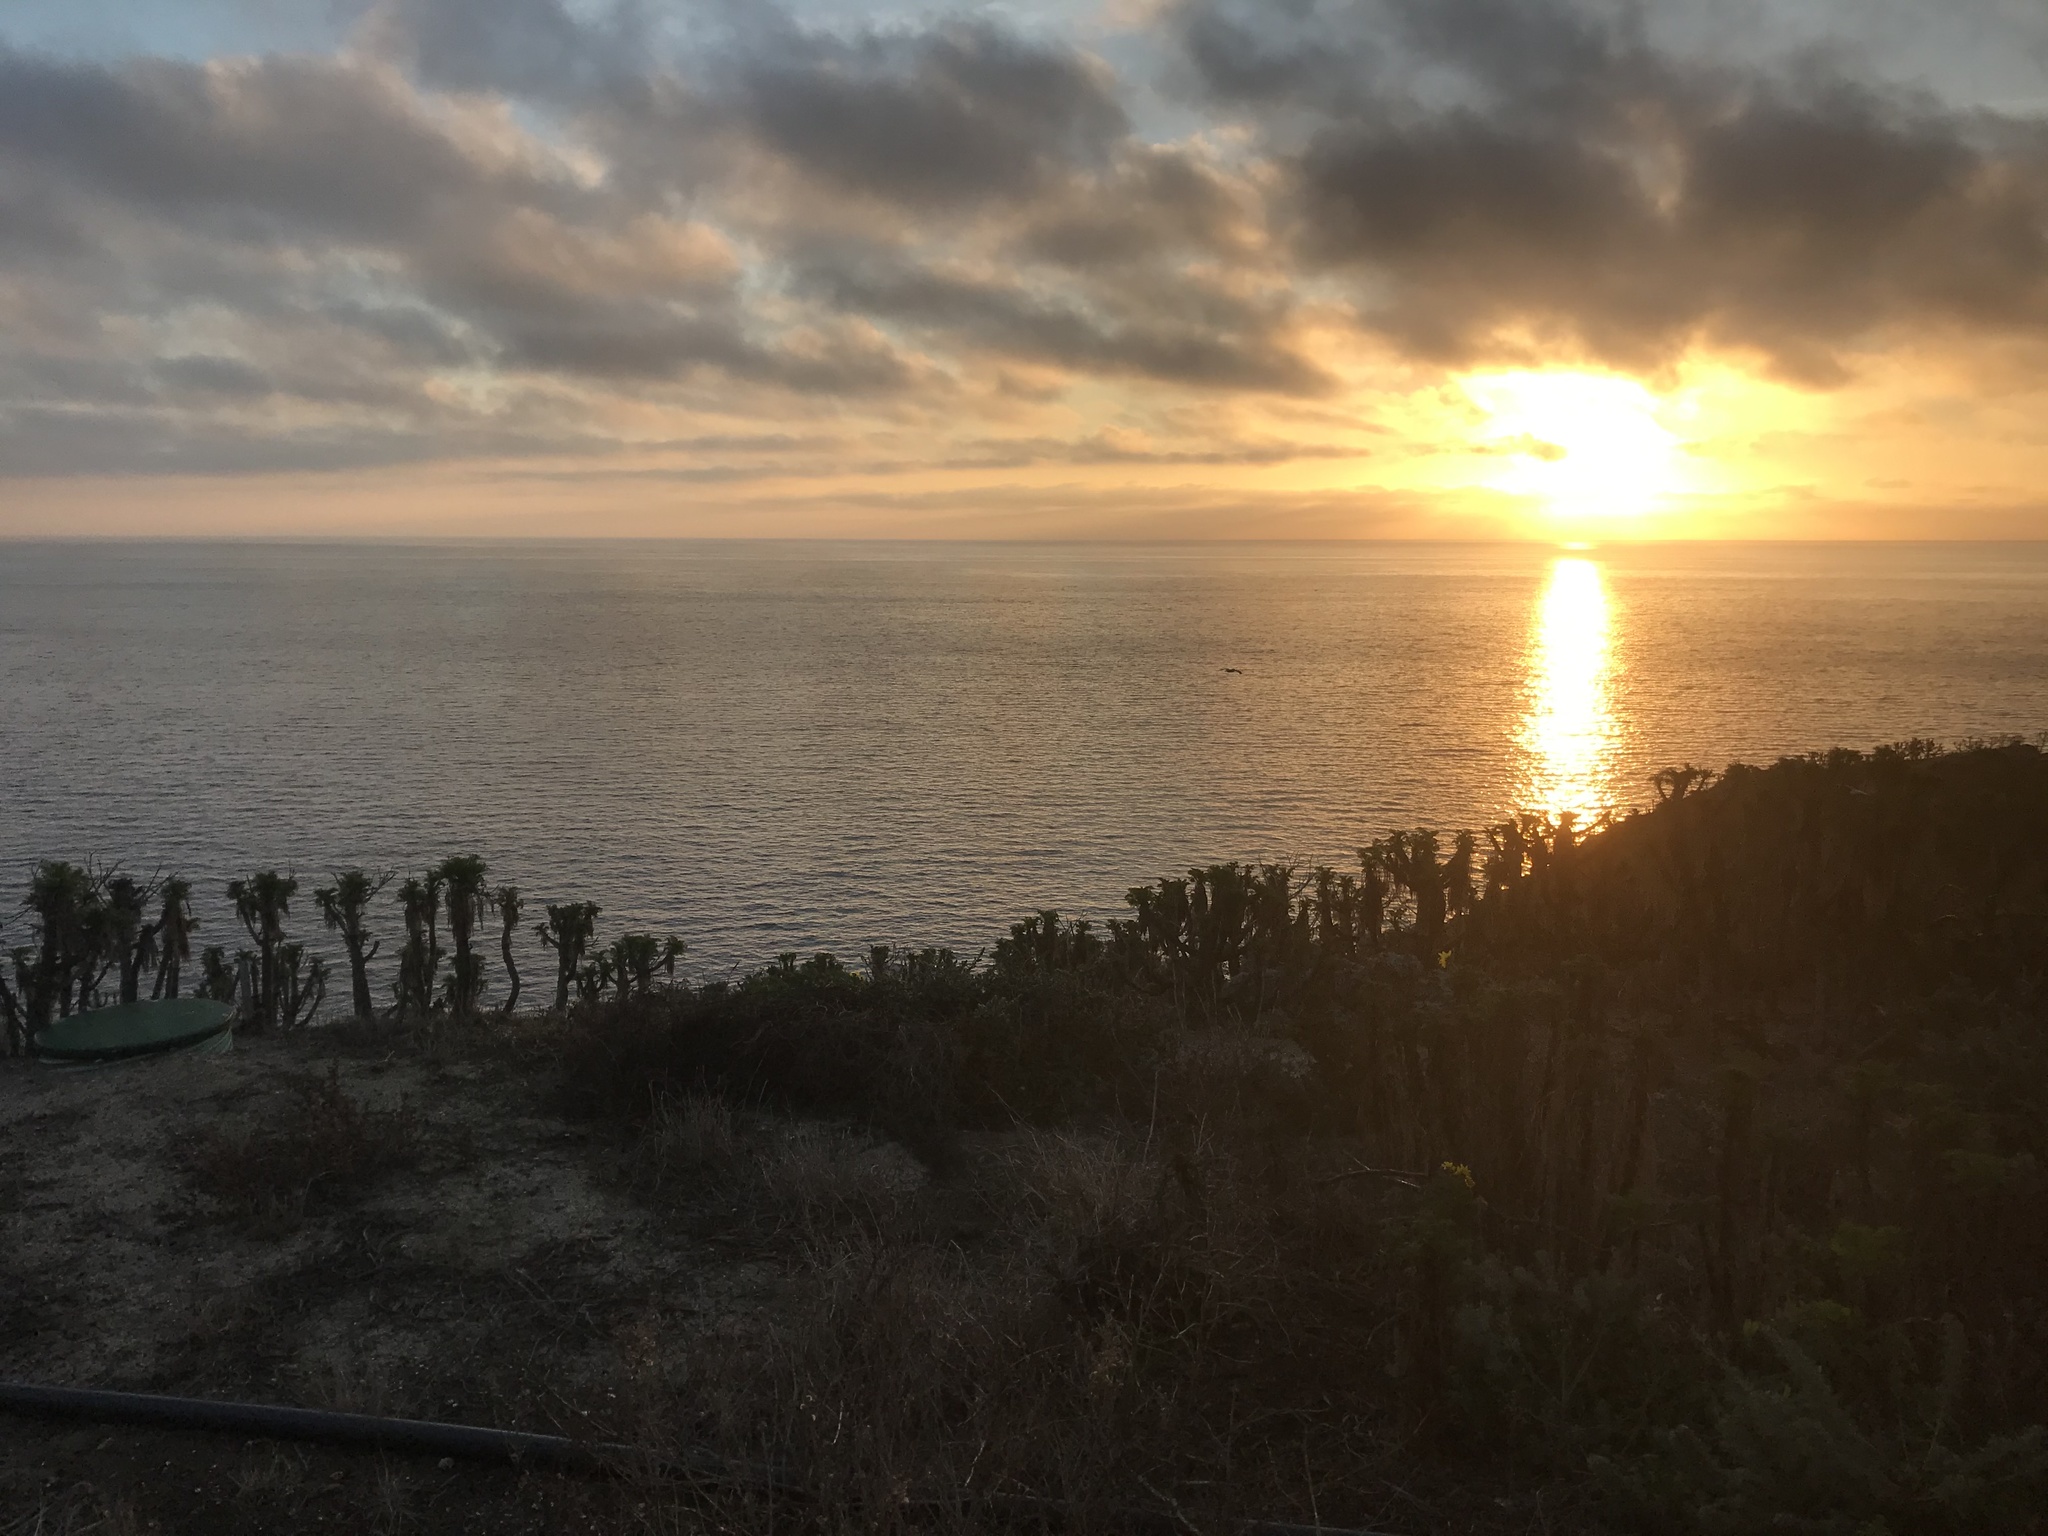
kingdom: Plantae
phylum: Tracheophyta
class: Magnoliopsida
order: Asterales
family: Asteraceae
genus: Coreopsis
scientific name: Coreopsis gigantea
